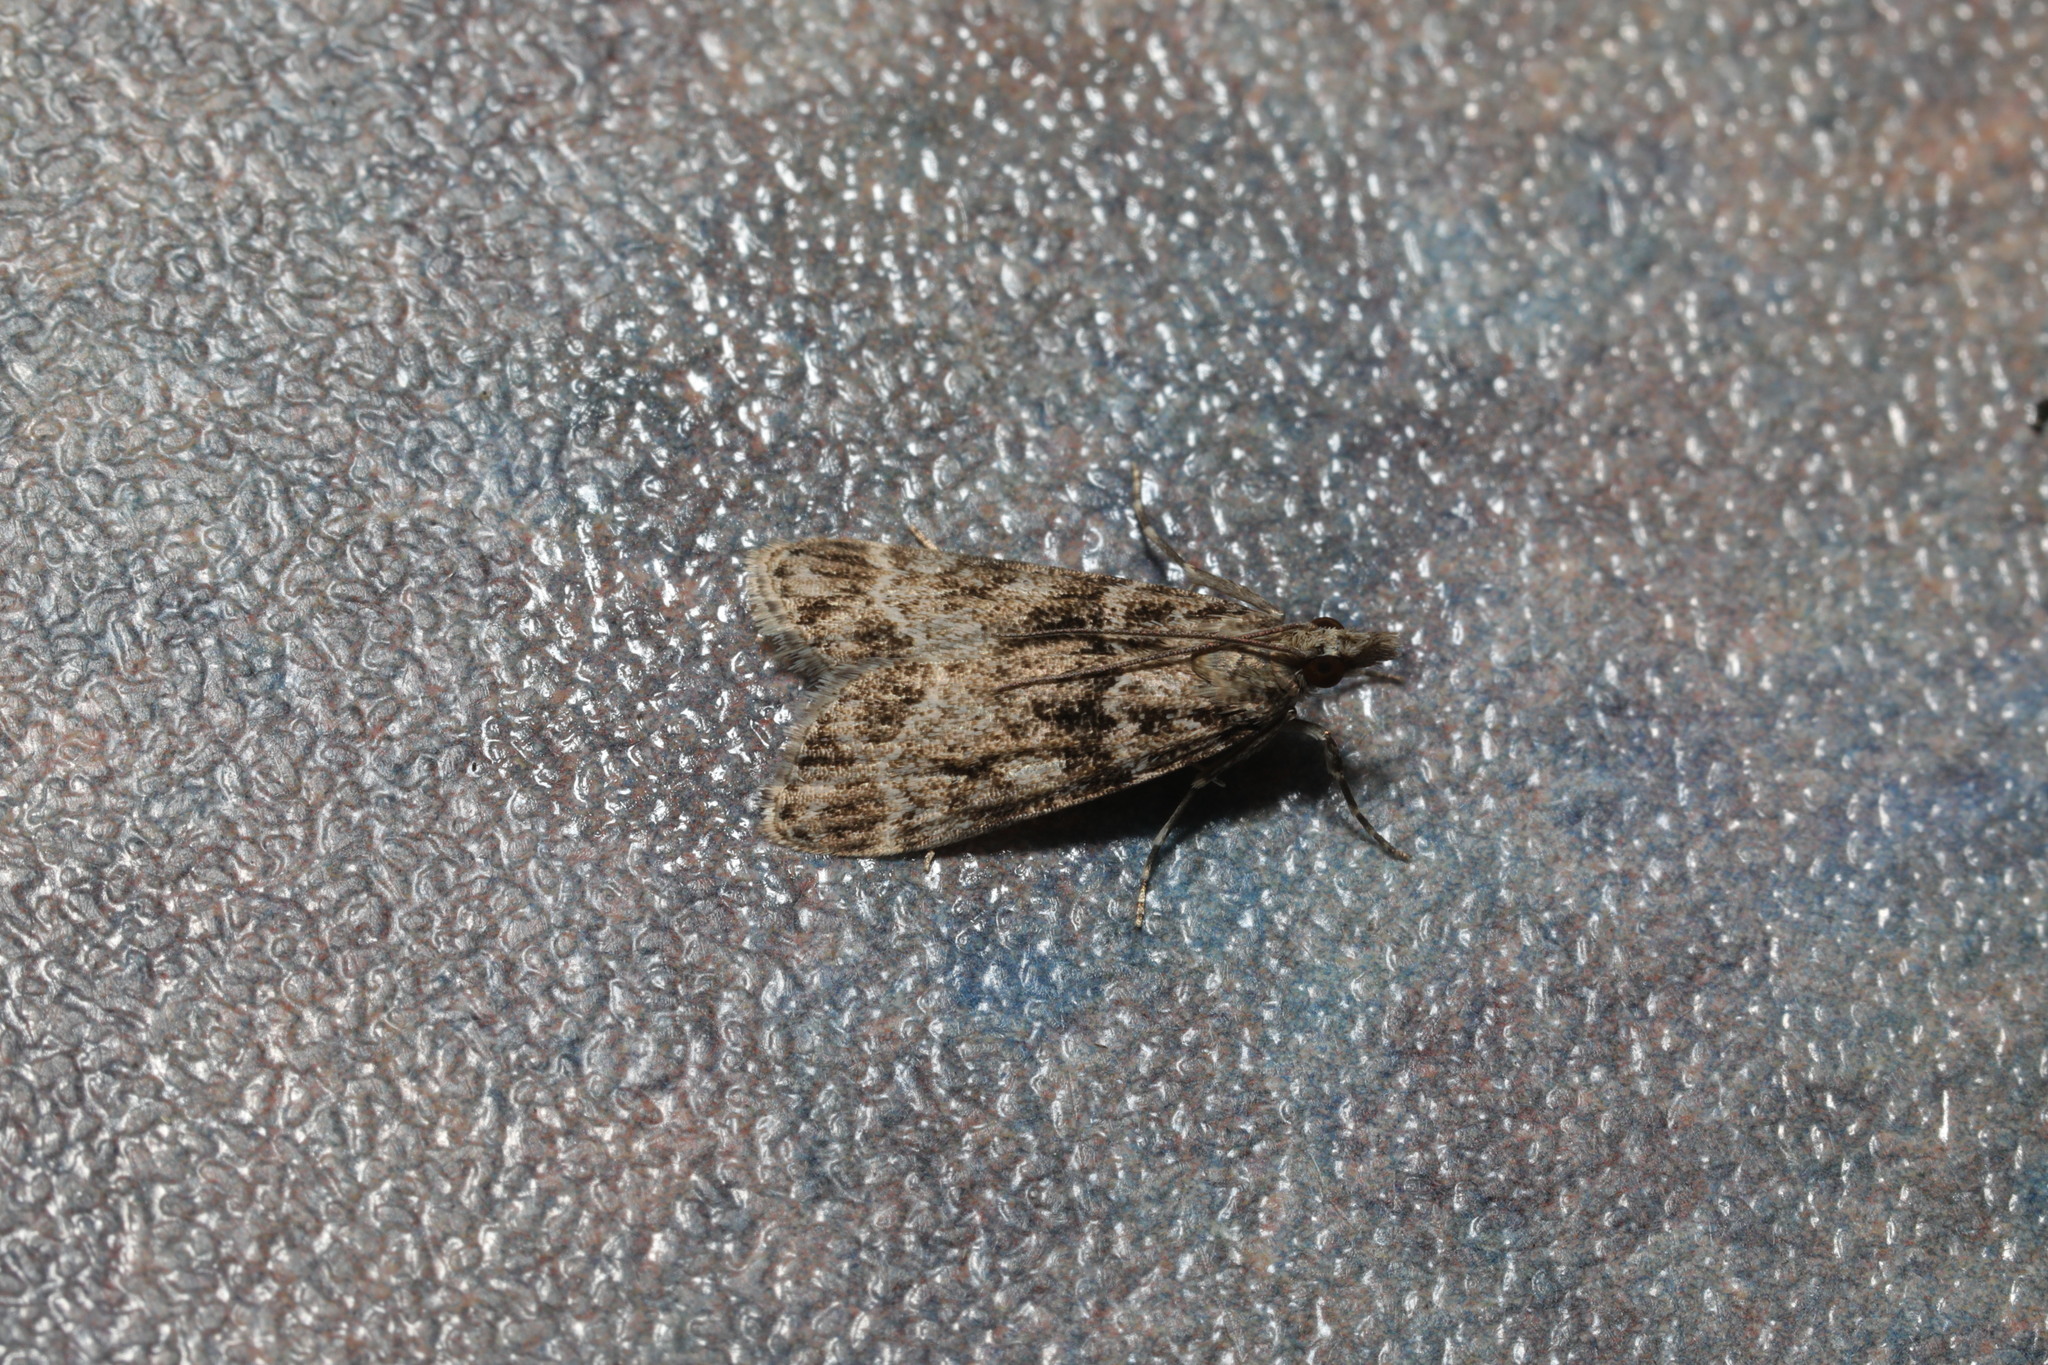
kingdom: Animalia
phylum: Arthropoda
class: Insecta
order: Lepidoptera
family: Crambidae
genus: Eudonia
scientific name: Eudonia mercurella
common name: Small grey
